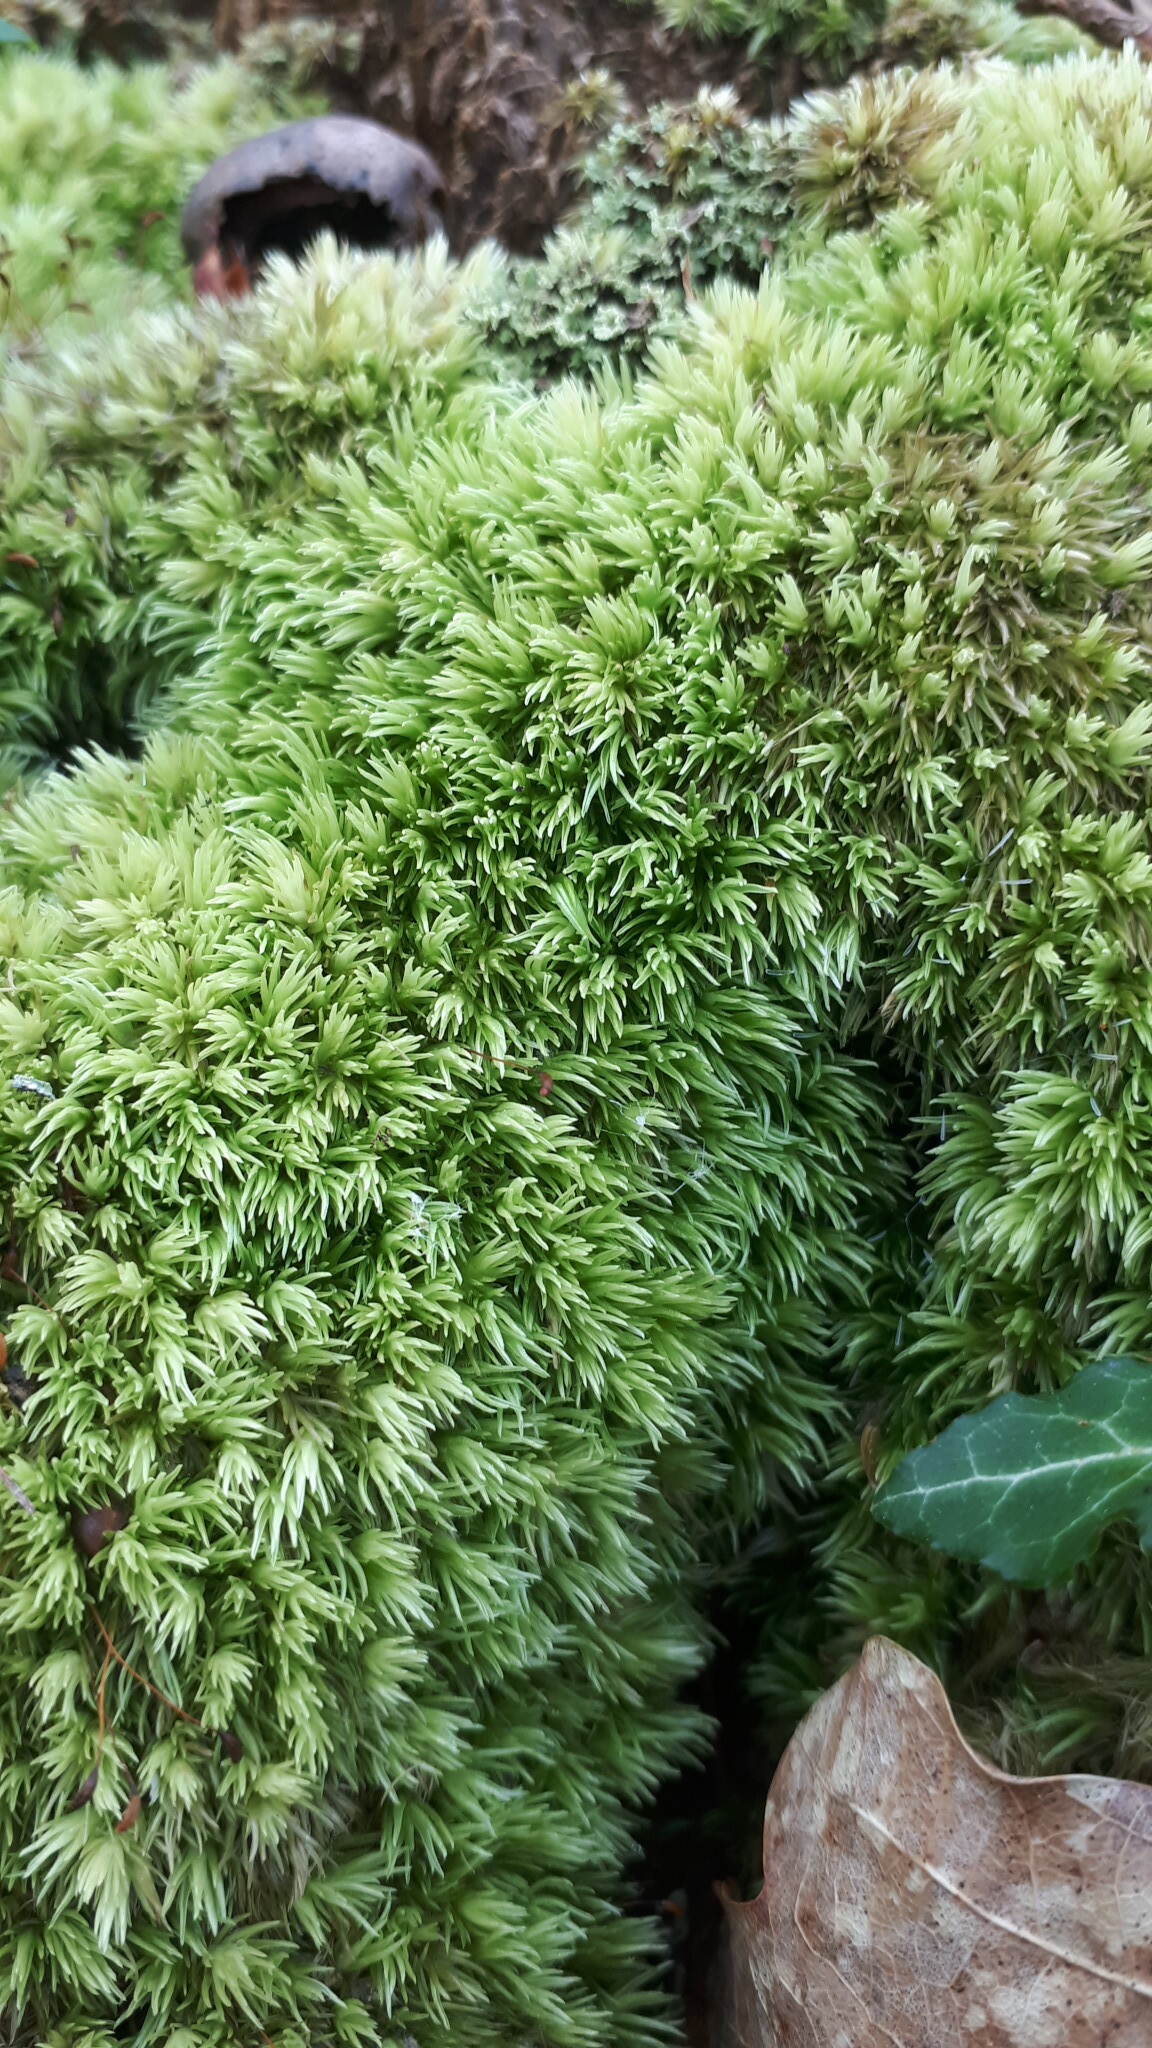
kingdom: Plantae
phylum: Bryophyta
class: Bryopsida
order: Dicranales
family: Leucobryaceae
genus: Leucobryum
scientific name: Leucobryum glaucum
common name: Large white-moss
